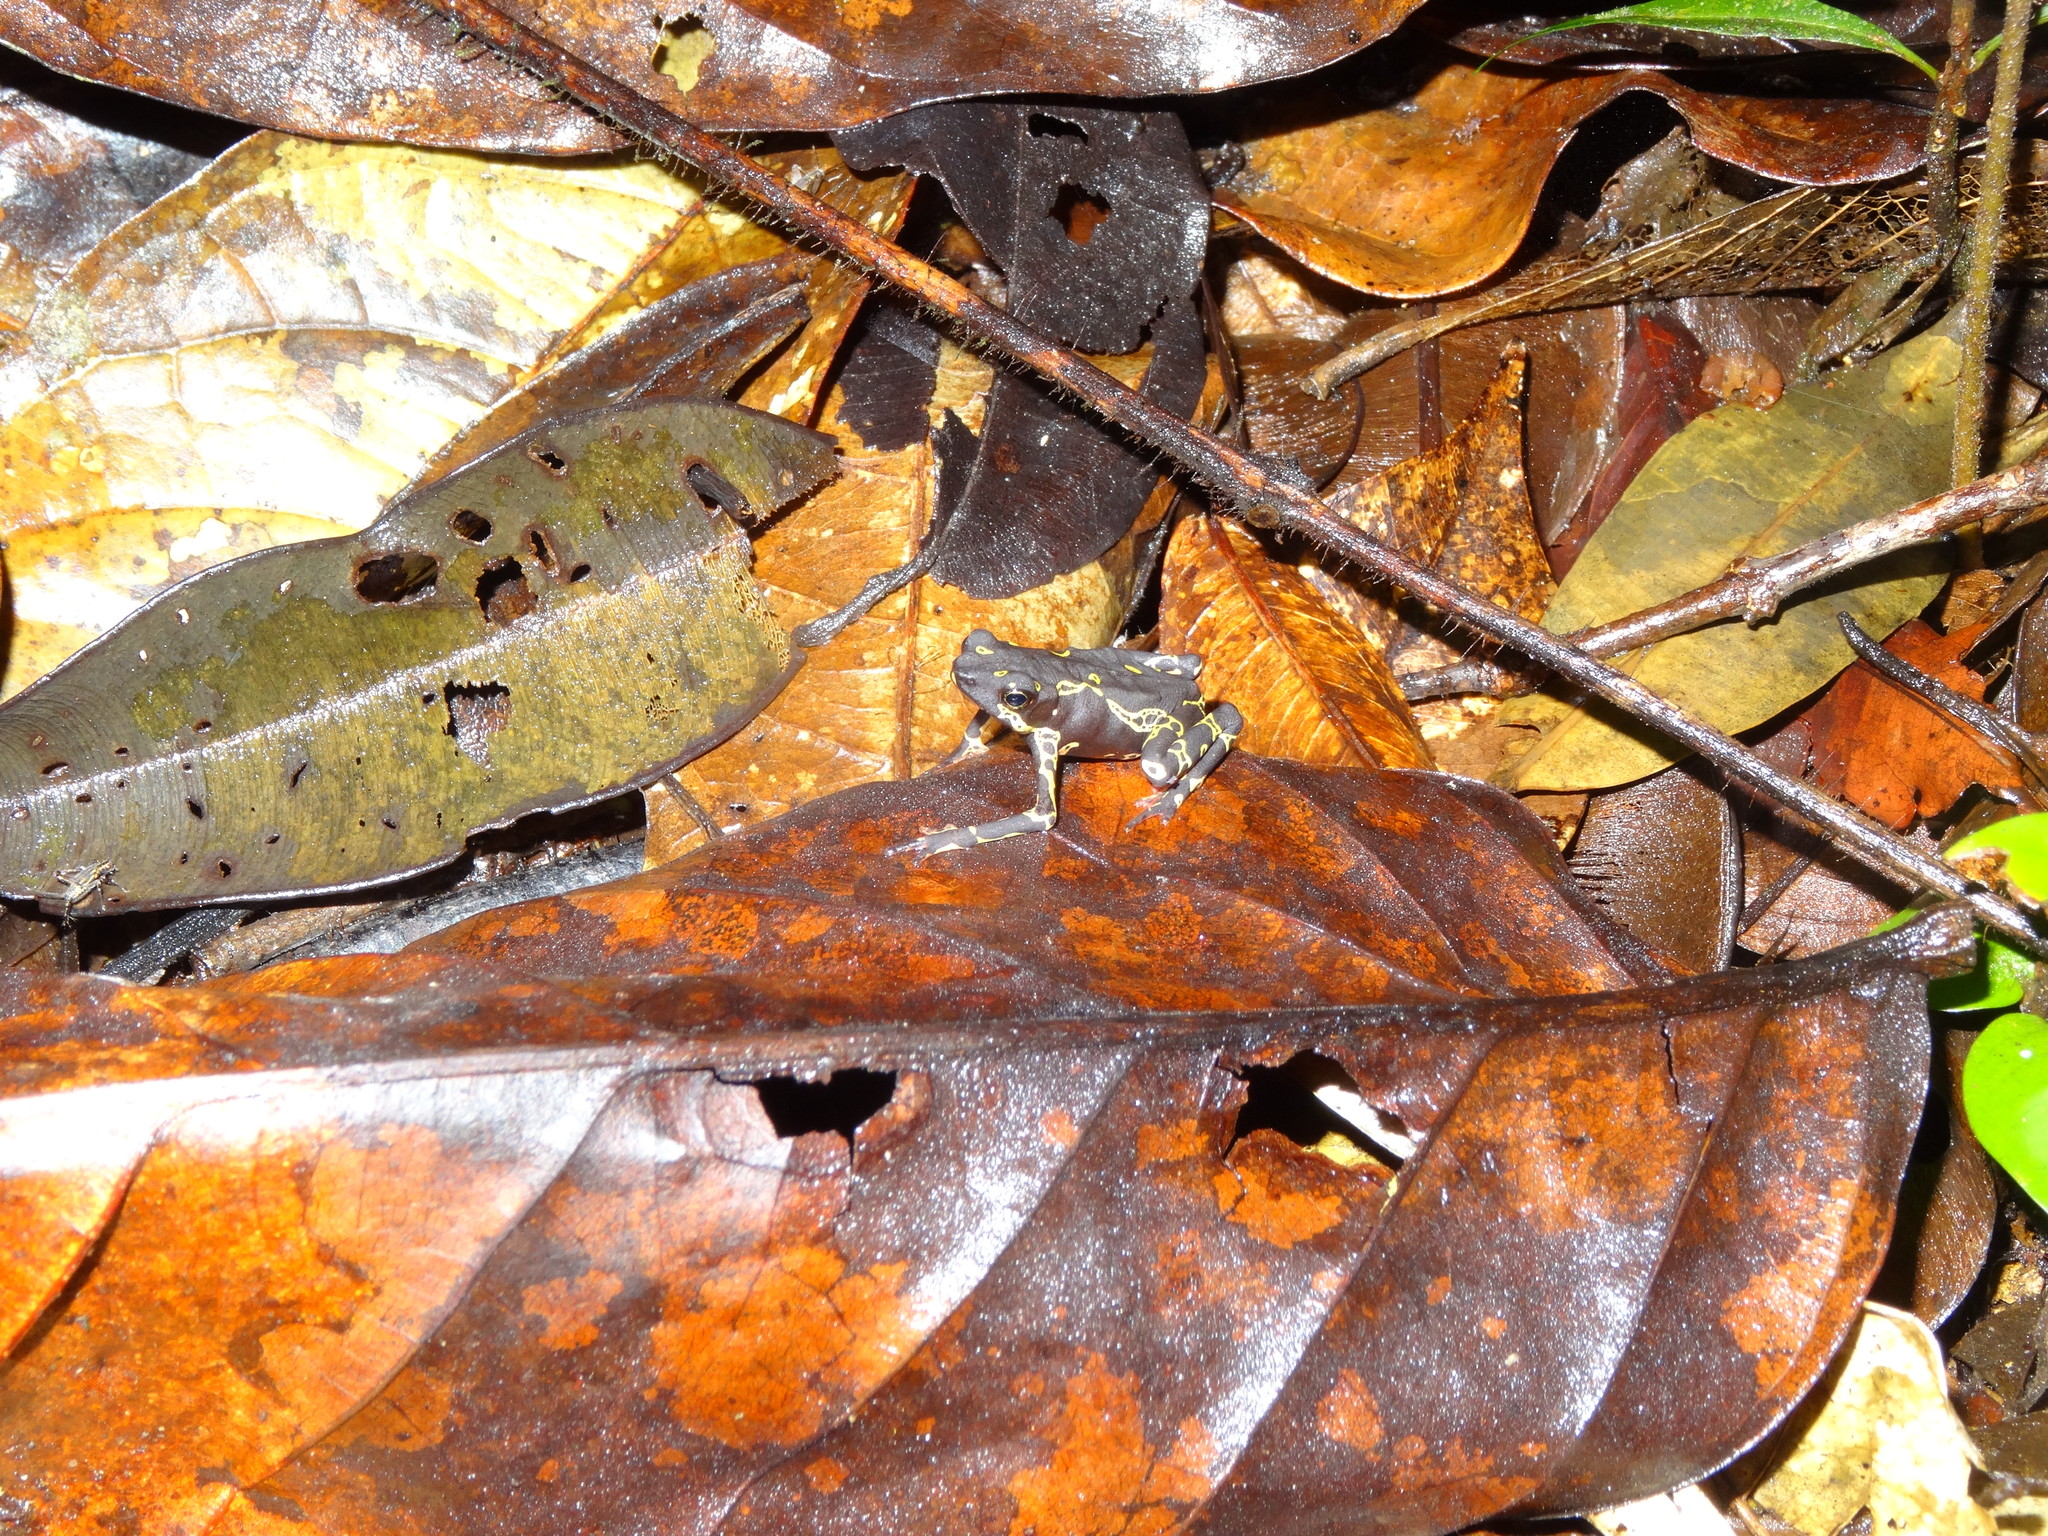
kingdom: Animalia
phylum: Chordata
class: Amphibia
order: Anura
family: Bufonidae
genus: Atelopus
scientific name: Atelopus hoogmoedi
